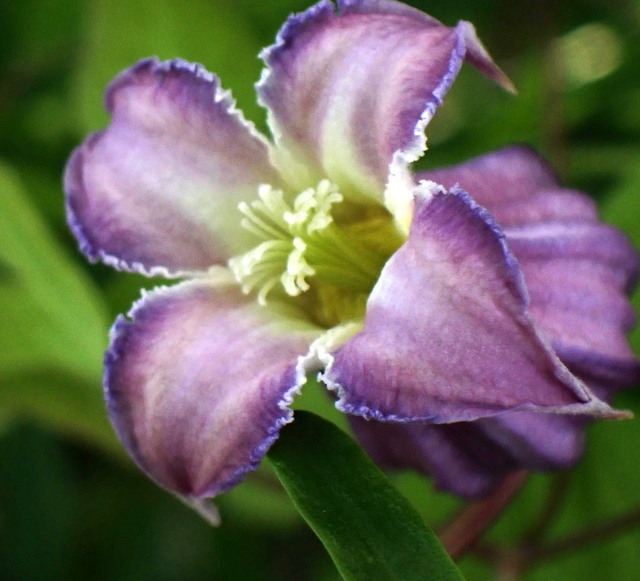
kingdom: Plantae
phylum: Tracheophyta
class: Magnoliopsida
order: Ranunculales
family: Ranunculaceae
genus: Clematis
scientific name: Clematis crispa
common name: Curly clematis
